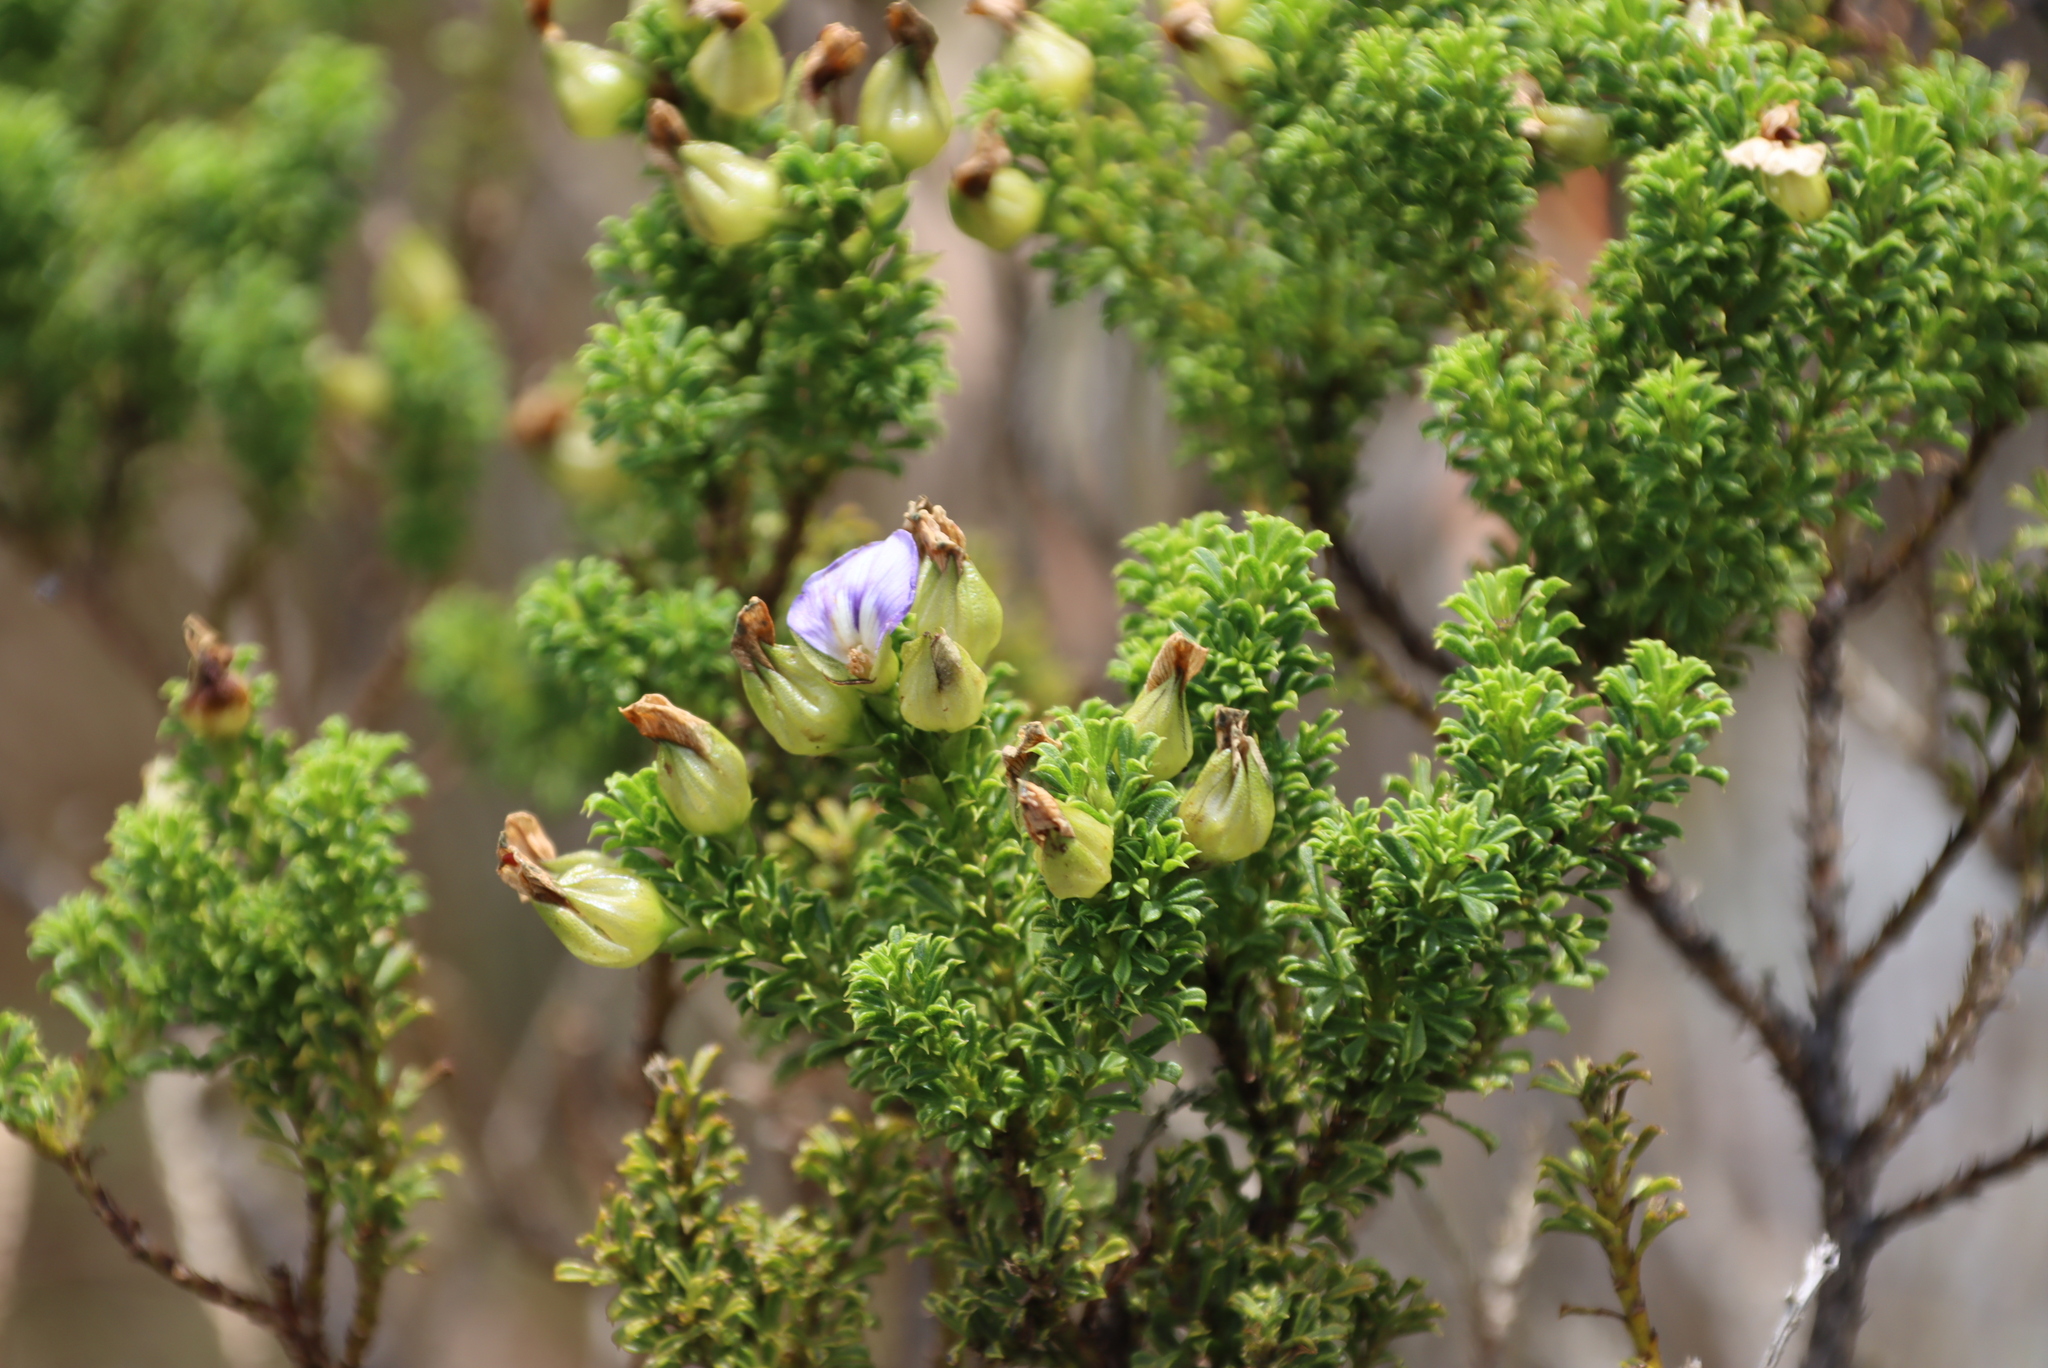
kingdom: Plantae
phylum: Tracheophyta
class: Magnoliopsida
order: Fabales
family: Fabaceae
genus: Psoralea
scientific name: Psoralea aculeata
